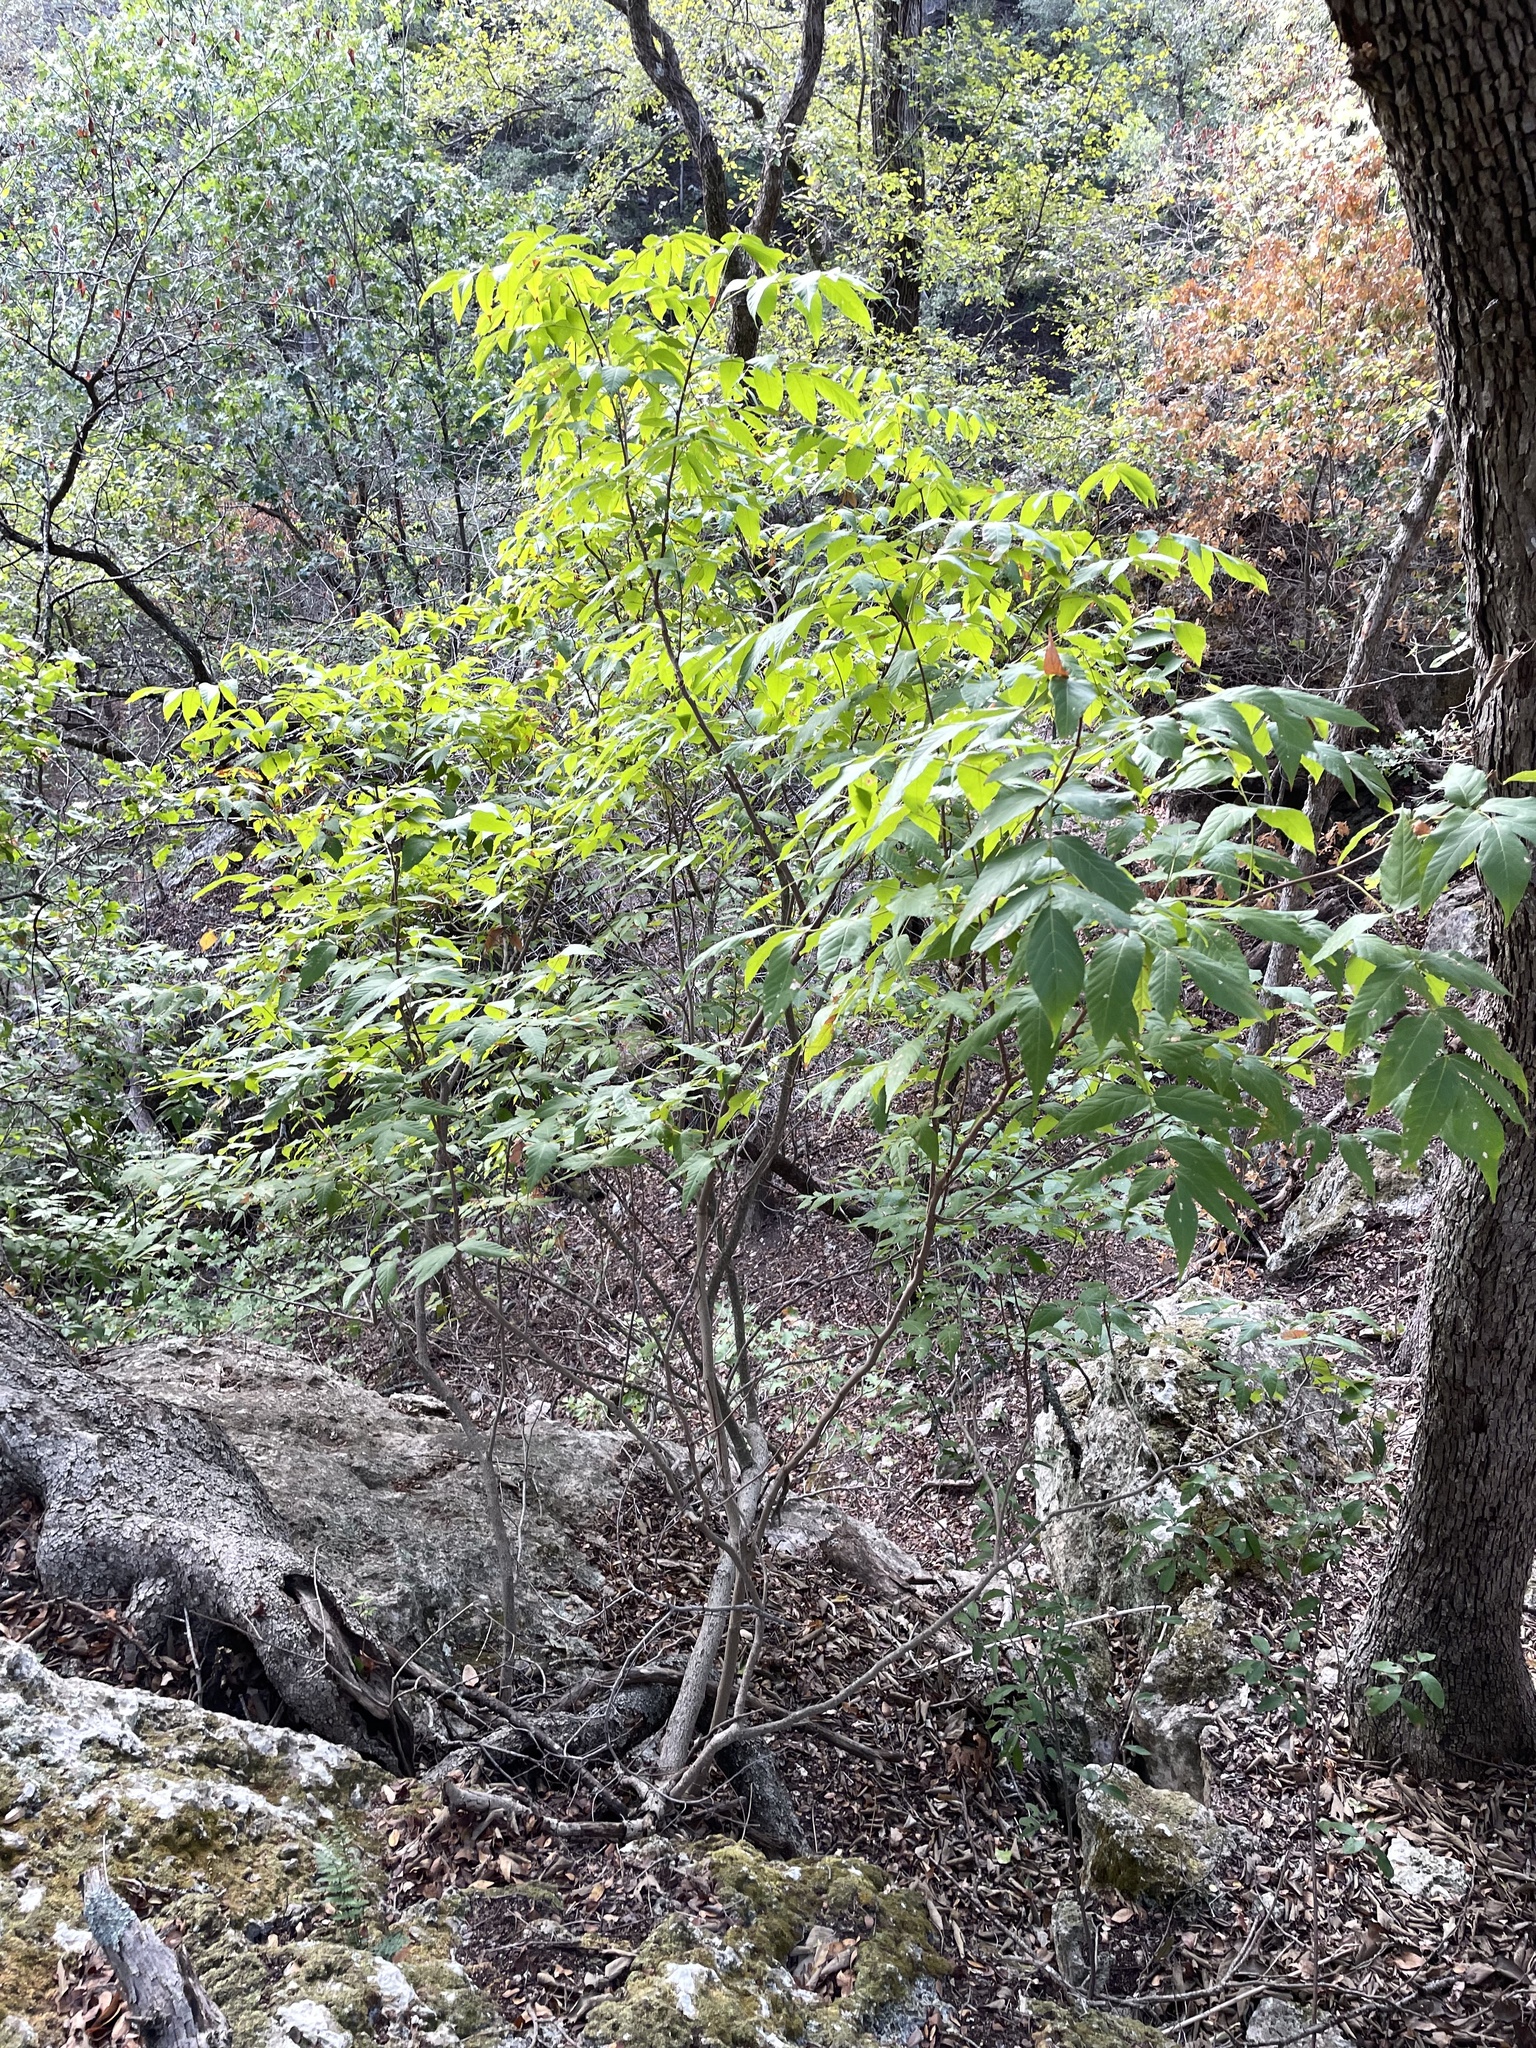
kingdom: Plantae
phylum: Tracheophyta
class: Magnoliopsida
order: Sapindales
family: Sapindaceae
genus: Ungnadia
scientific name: Ungnadia speciosa
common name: Texas-buckeye
